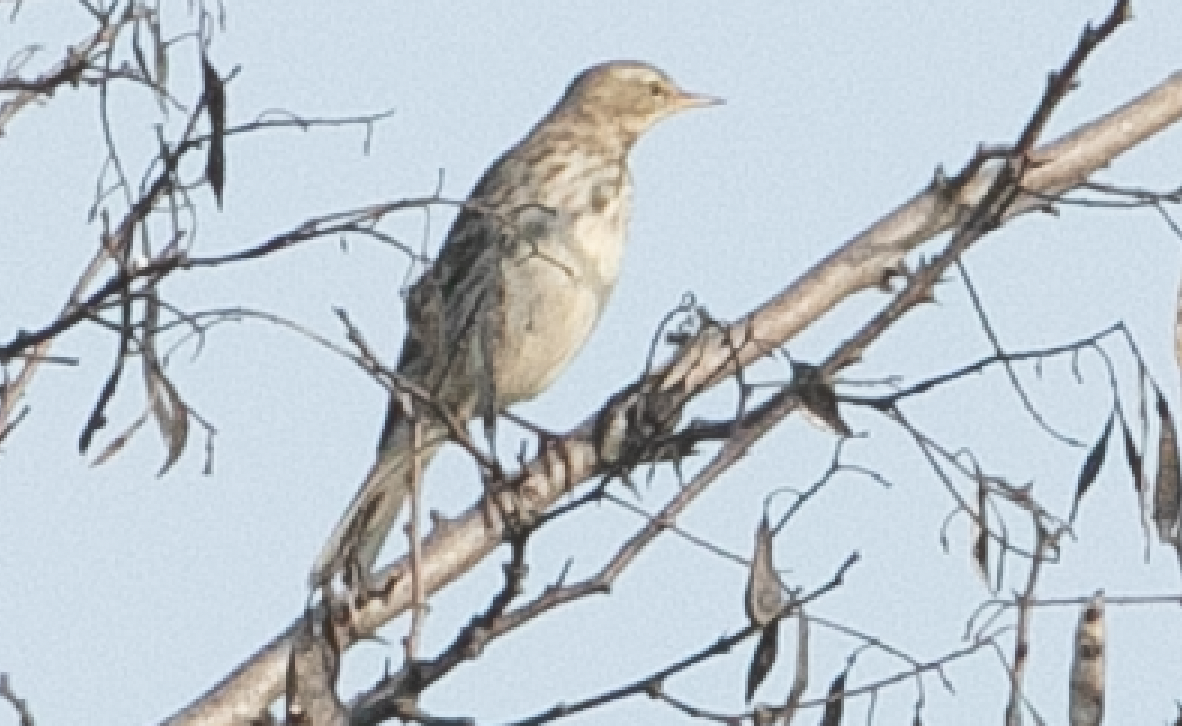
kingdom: Animalia
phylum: Chordata
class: Aves
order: Passeriformes
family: Motacillidae
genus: Anthus
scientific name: Anthus spinoletta
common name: Water pipit
